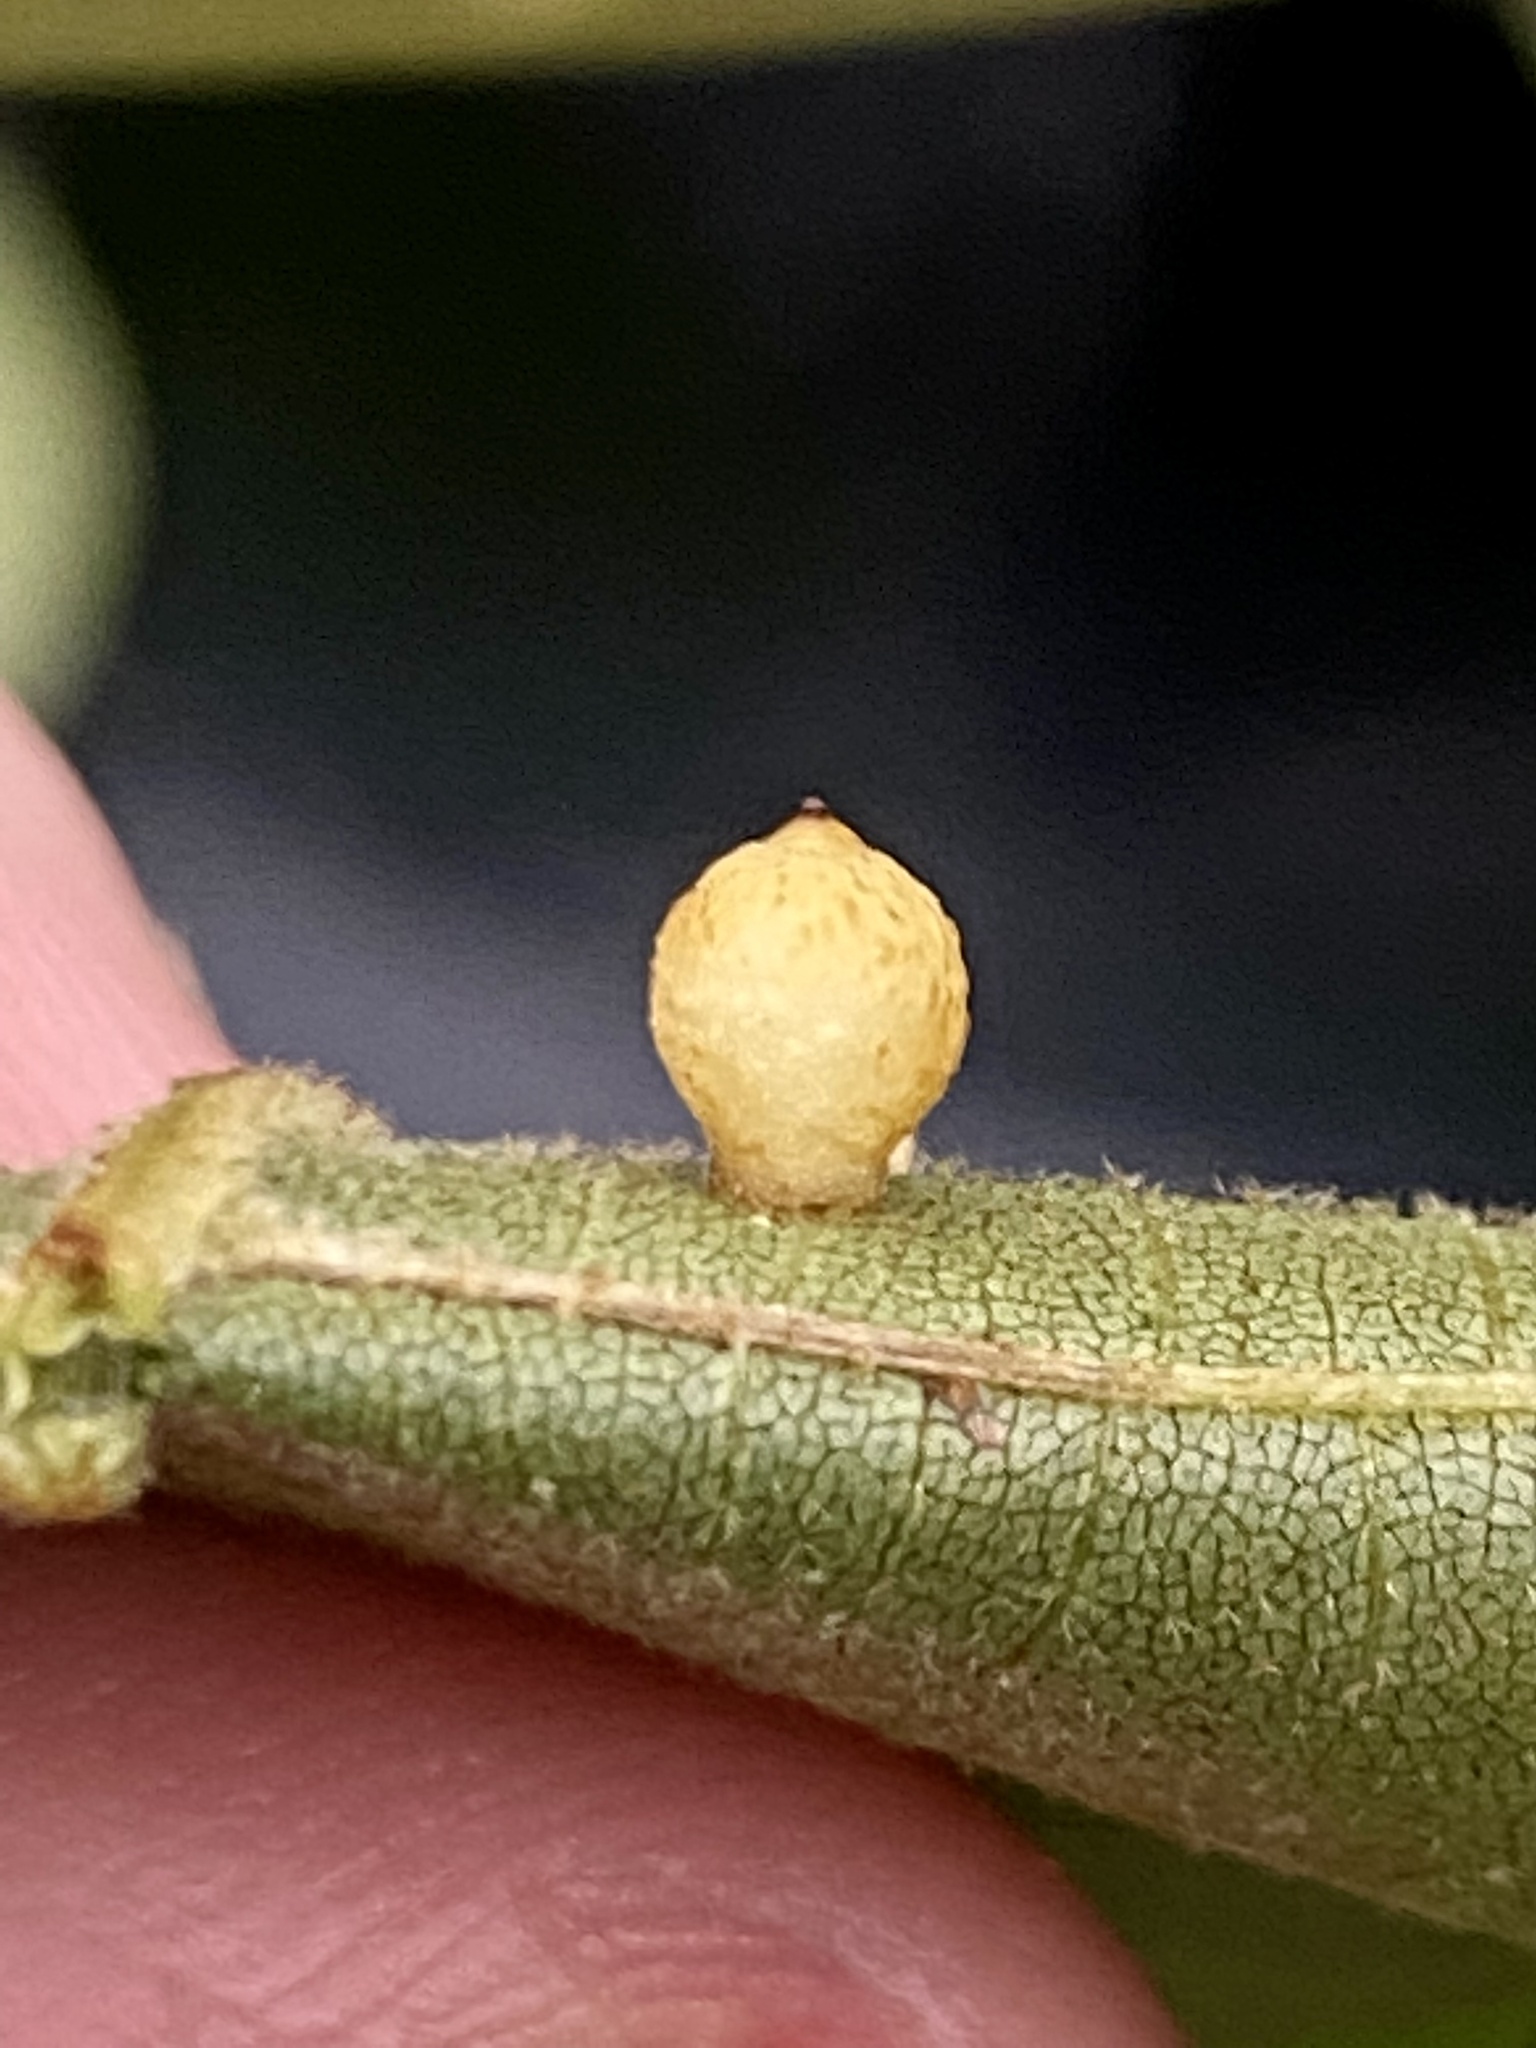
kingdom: Animalia
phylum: Arthropoda
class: Insecta
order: Diptera
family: Cecidomyiidae
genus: Caryomyia
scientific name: Caryomyia tuberidolium
